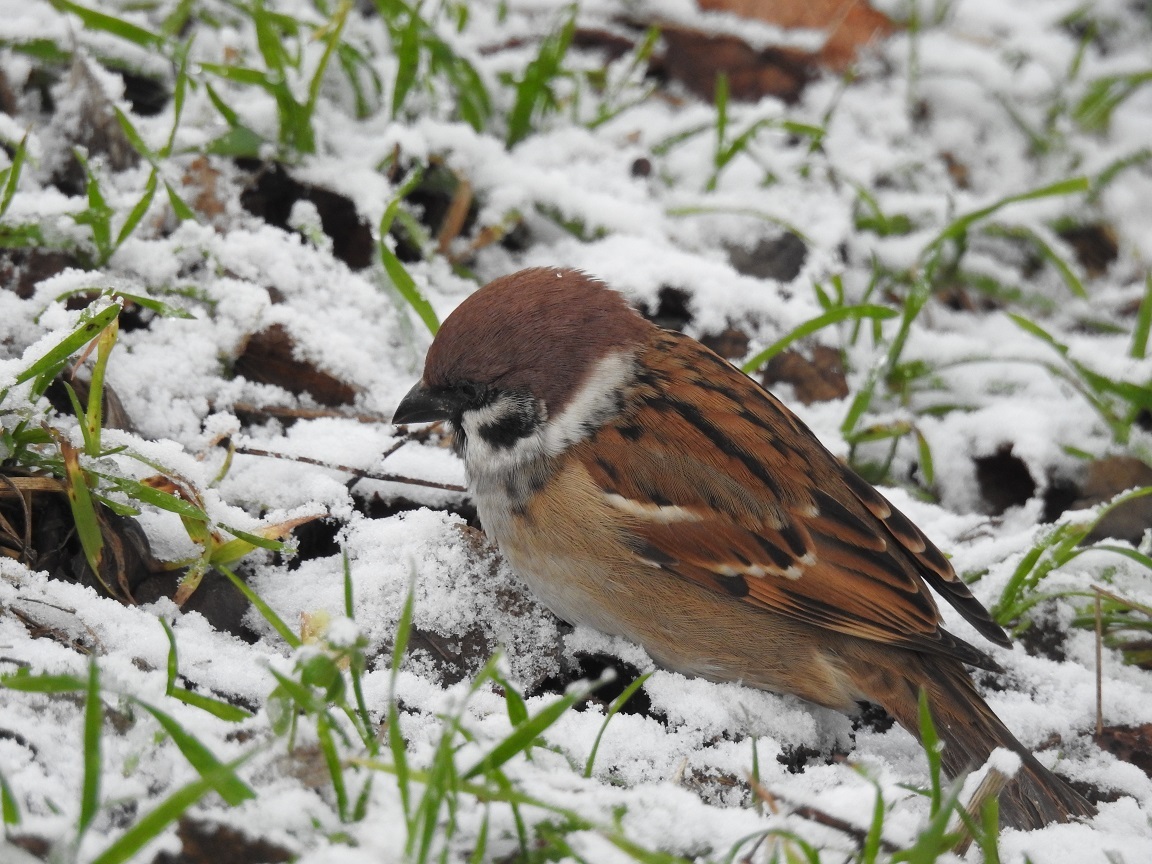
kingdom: Animalia
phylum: Chordata
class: Aves
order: Passeriformes
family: Passeridae
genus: Passer
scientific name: Passer montanus
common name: Eurasian tree sparrow
